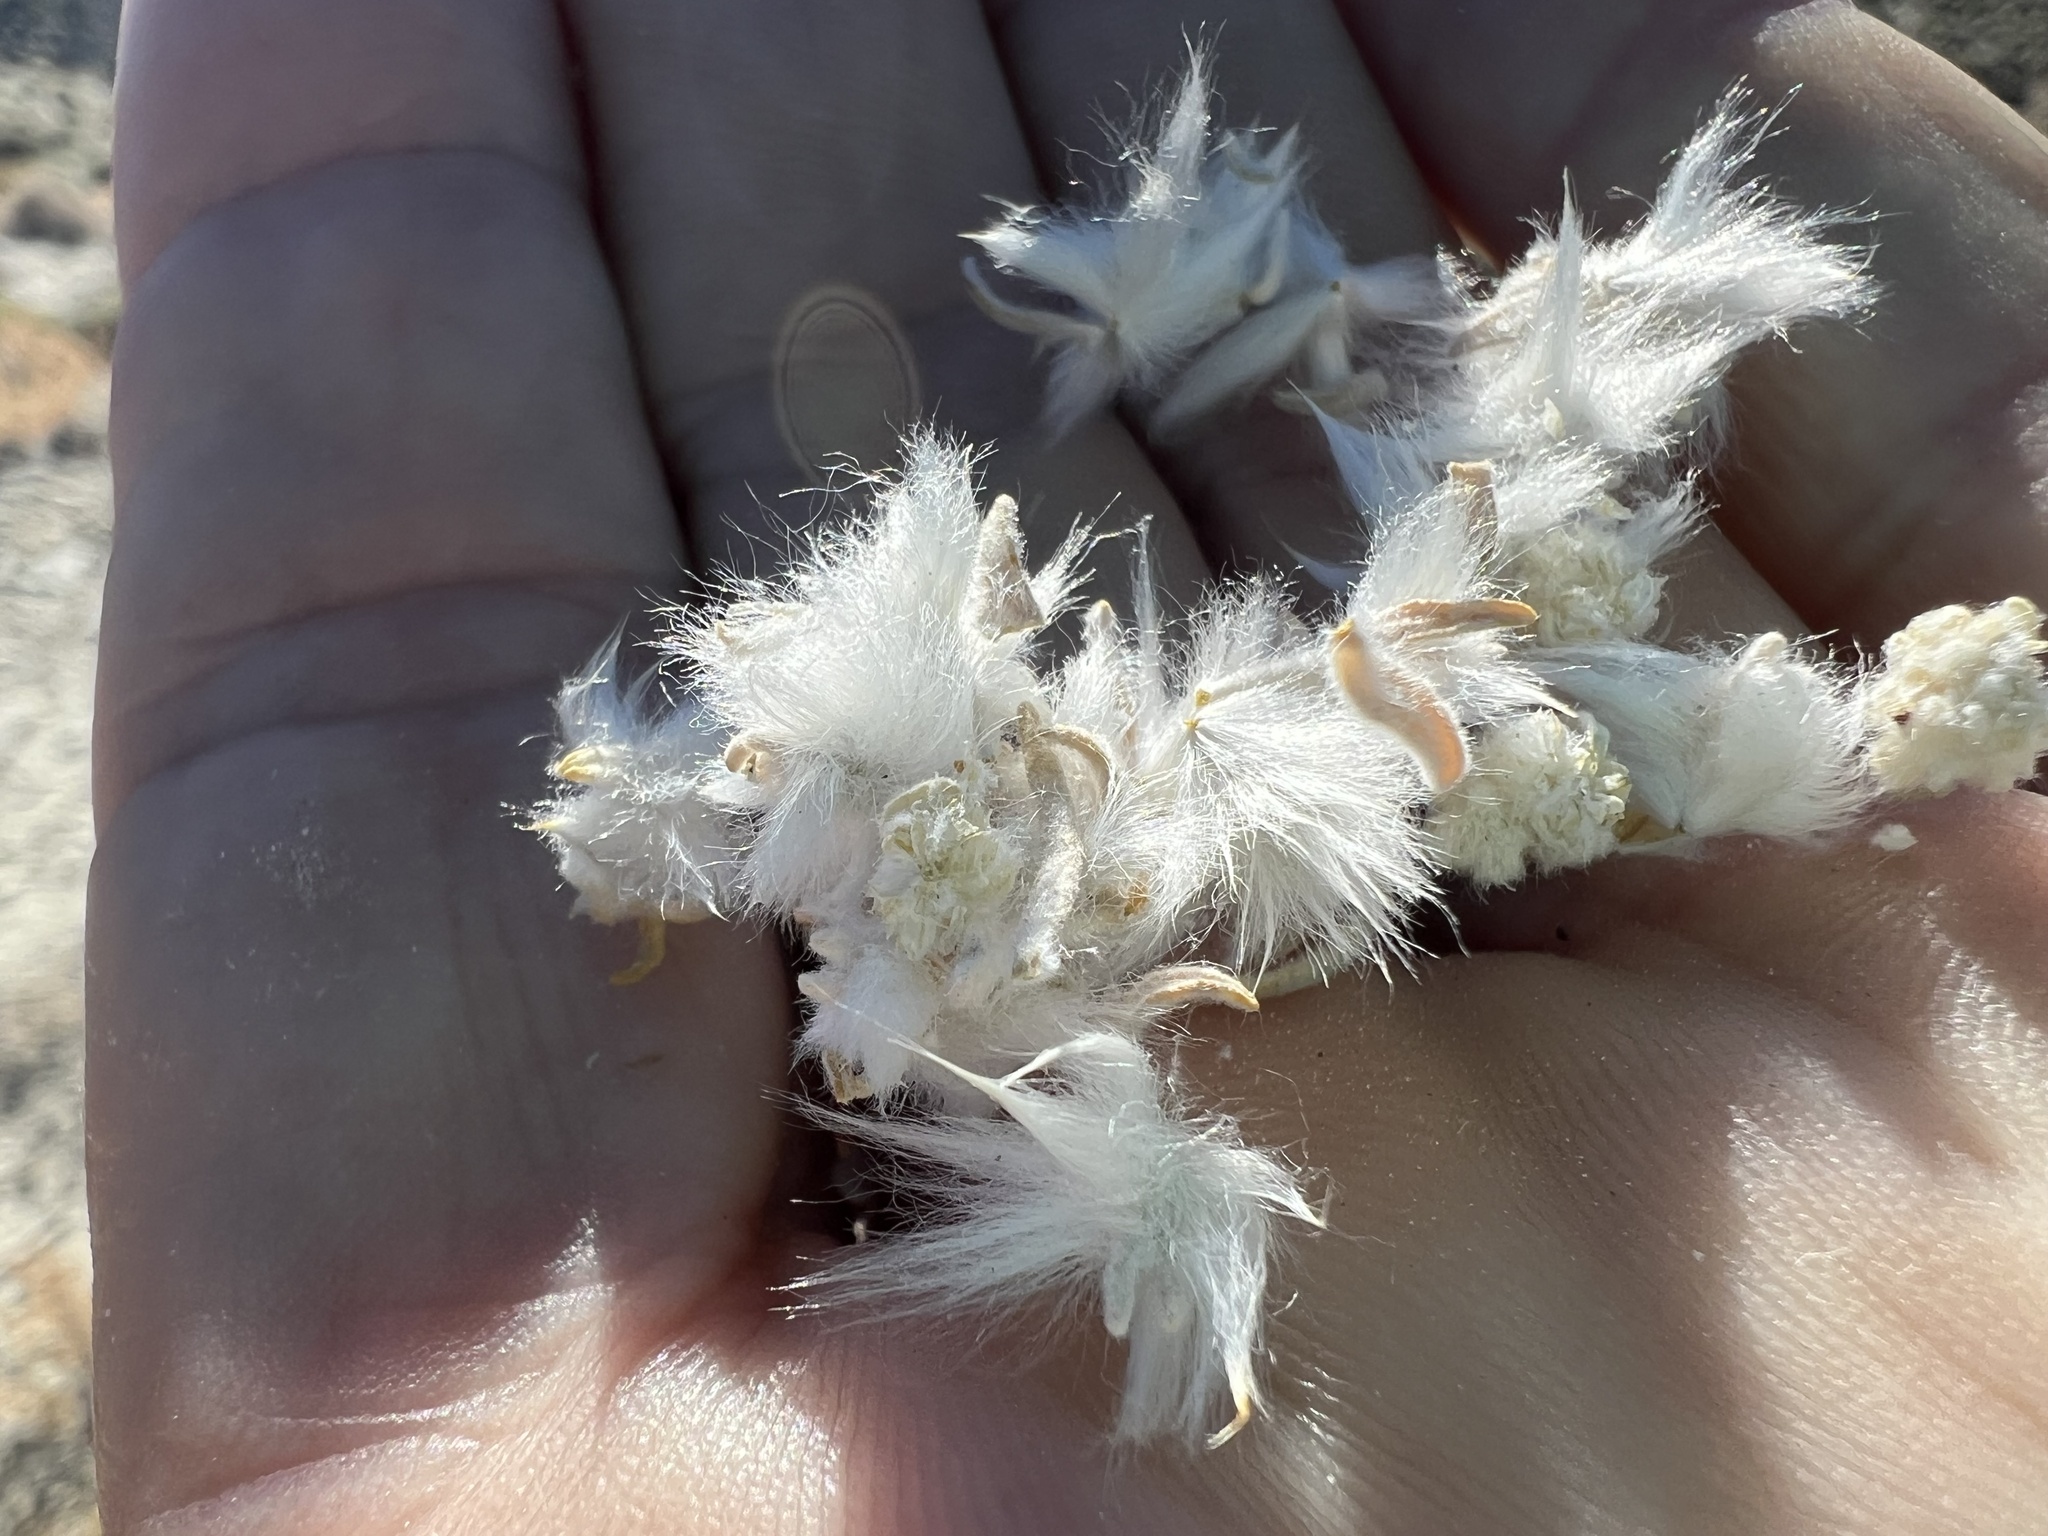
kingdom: Plantae
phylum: Tracheophyta
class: Magnoliopsida
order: Caryophyllales
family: Amaranthaceae
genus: Krascheninnikovia
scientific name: Krascheninnikovia lanata
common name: Winterfat
